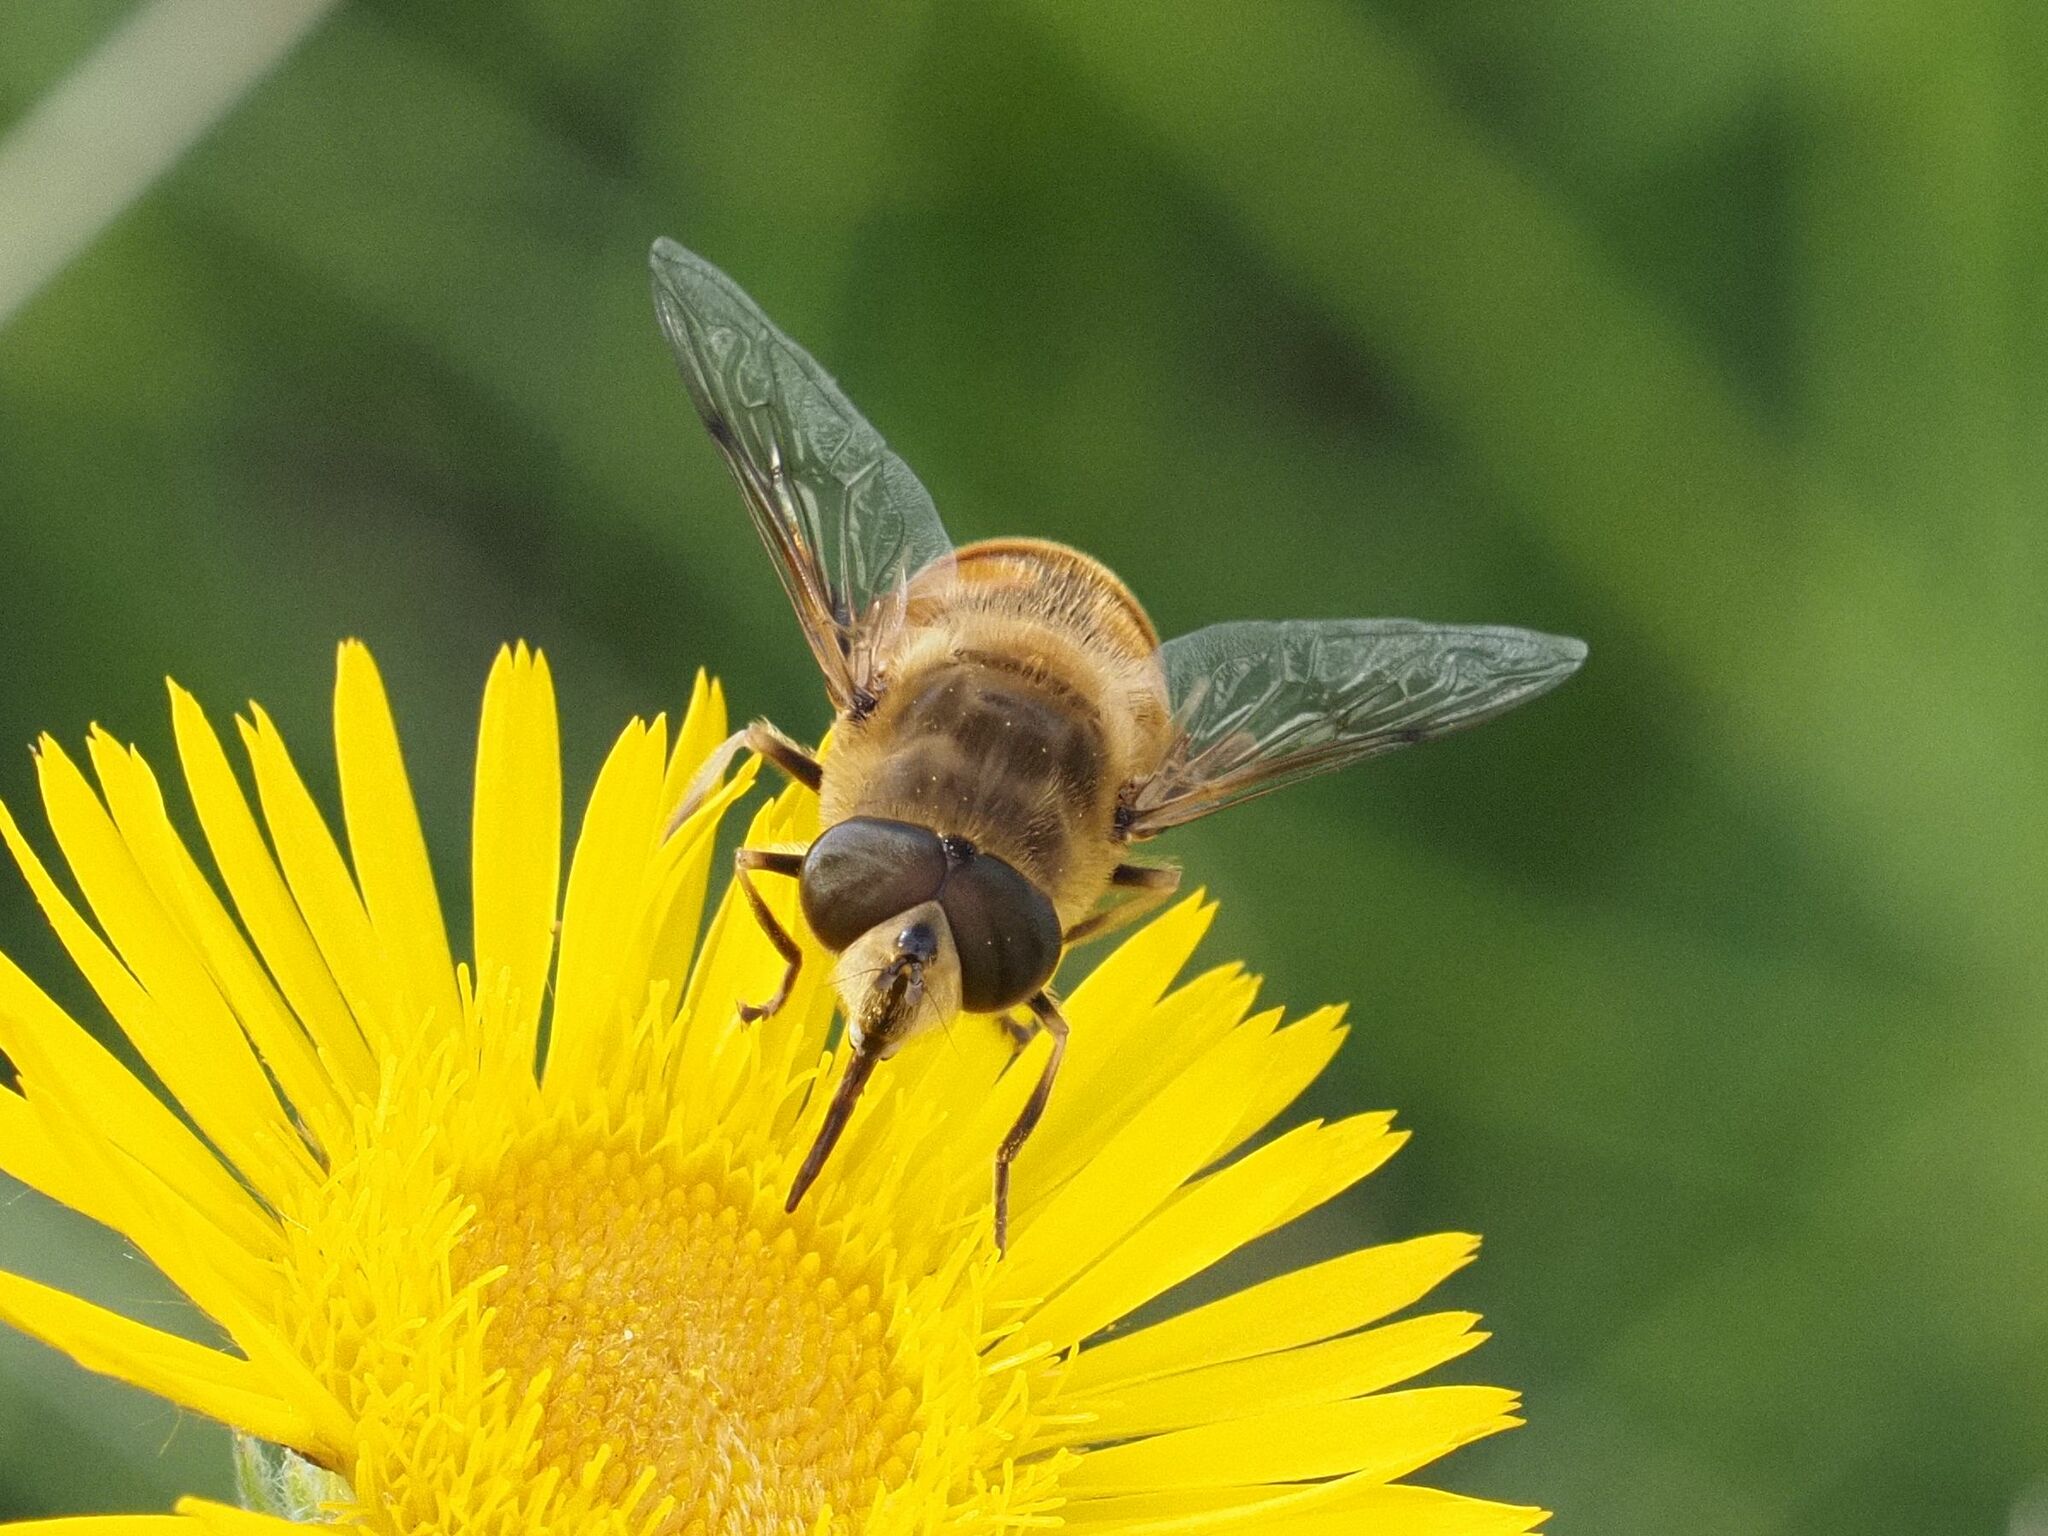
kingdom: Animalia
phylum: Arthropoda
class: Insecta
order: Diptera
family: Syrphidae
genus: Eristalis
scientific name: Eristalis tenax
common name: Drone fly
